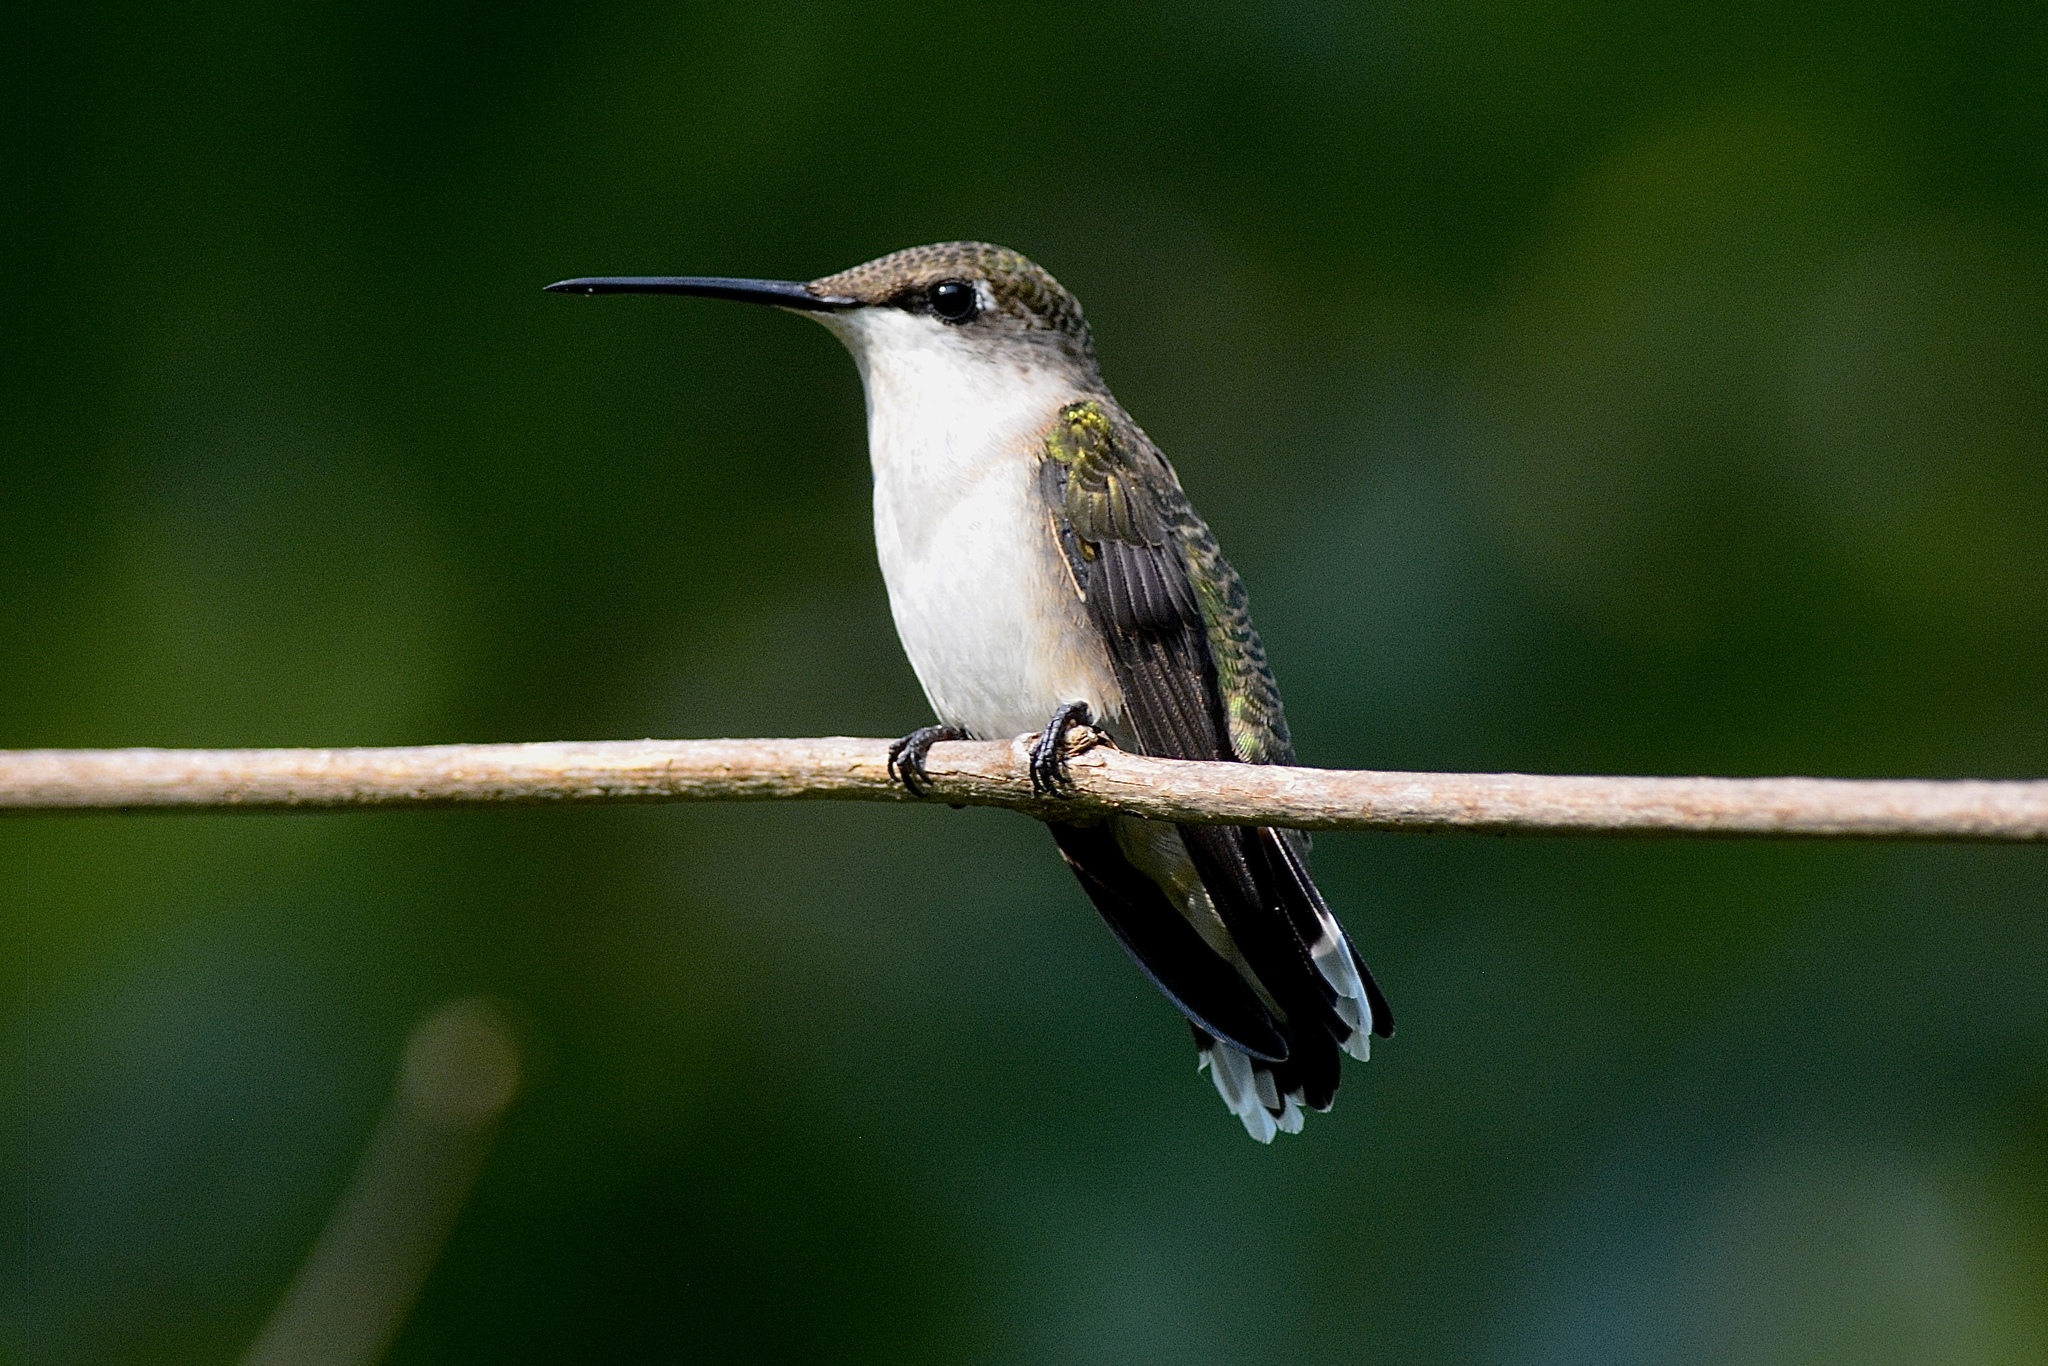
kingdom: Animalia
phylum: Chordata
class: Aves
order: Apodiformes
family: Trochilidae
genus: Archilochus
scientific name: Archilochus colubris
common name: Ruby-throated hummingbird
